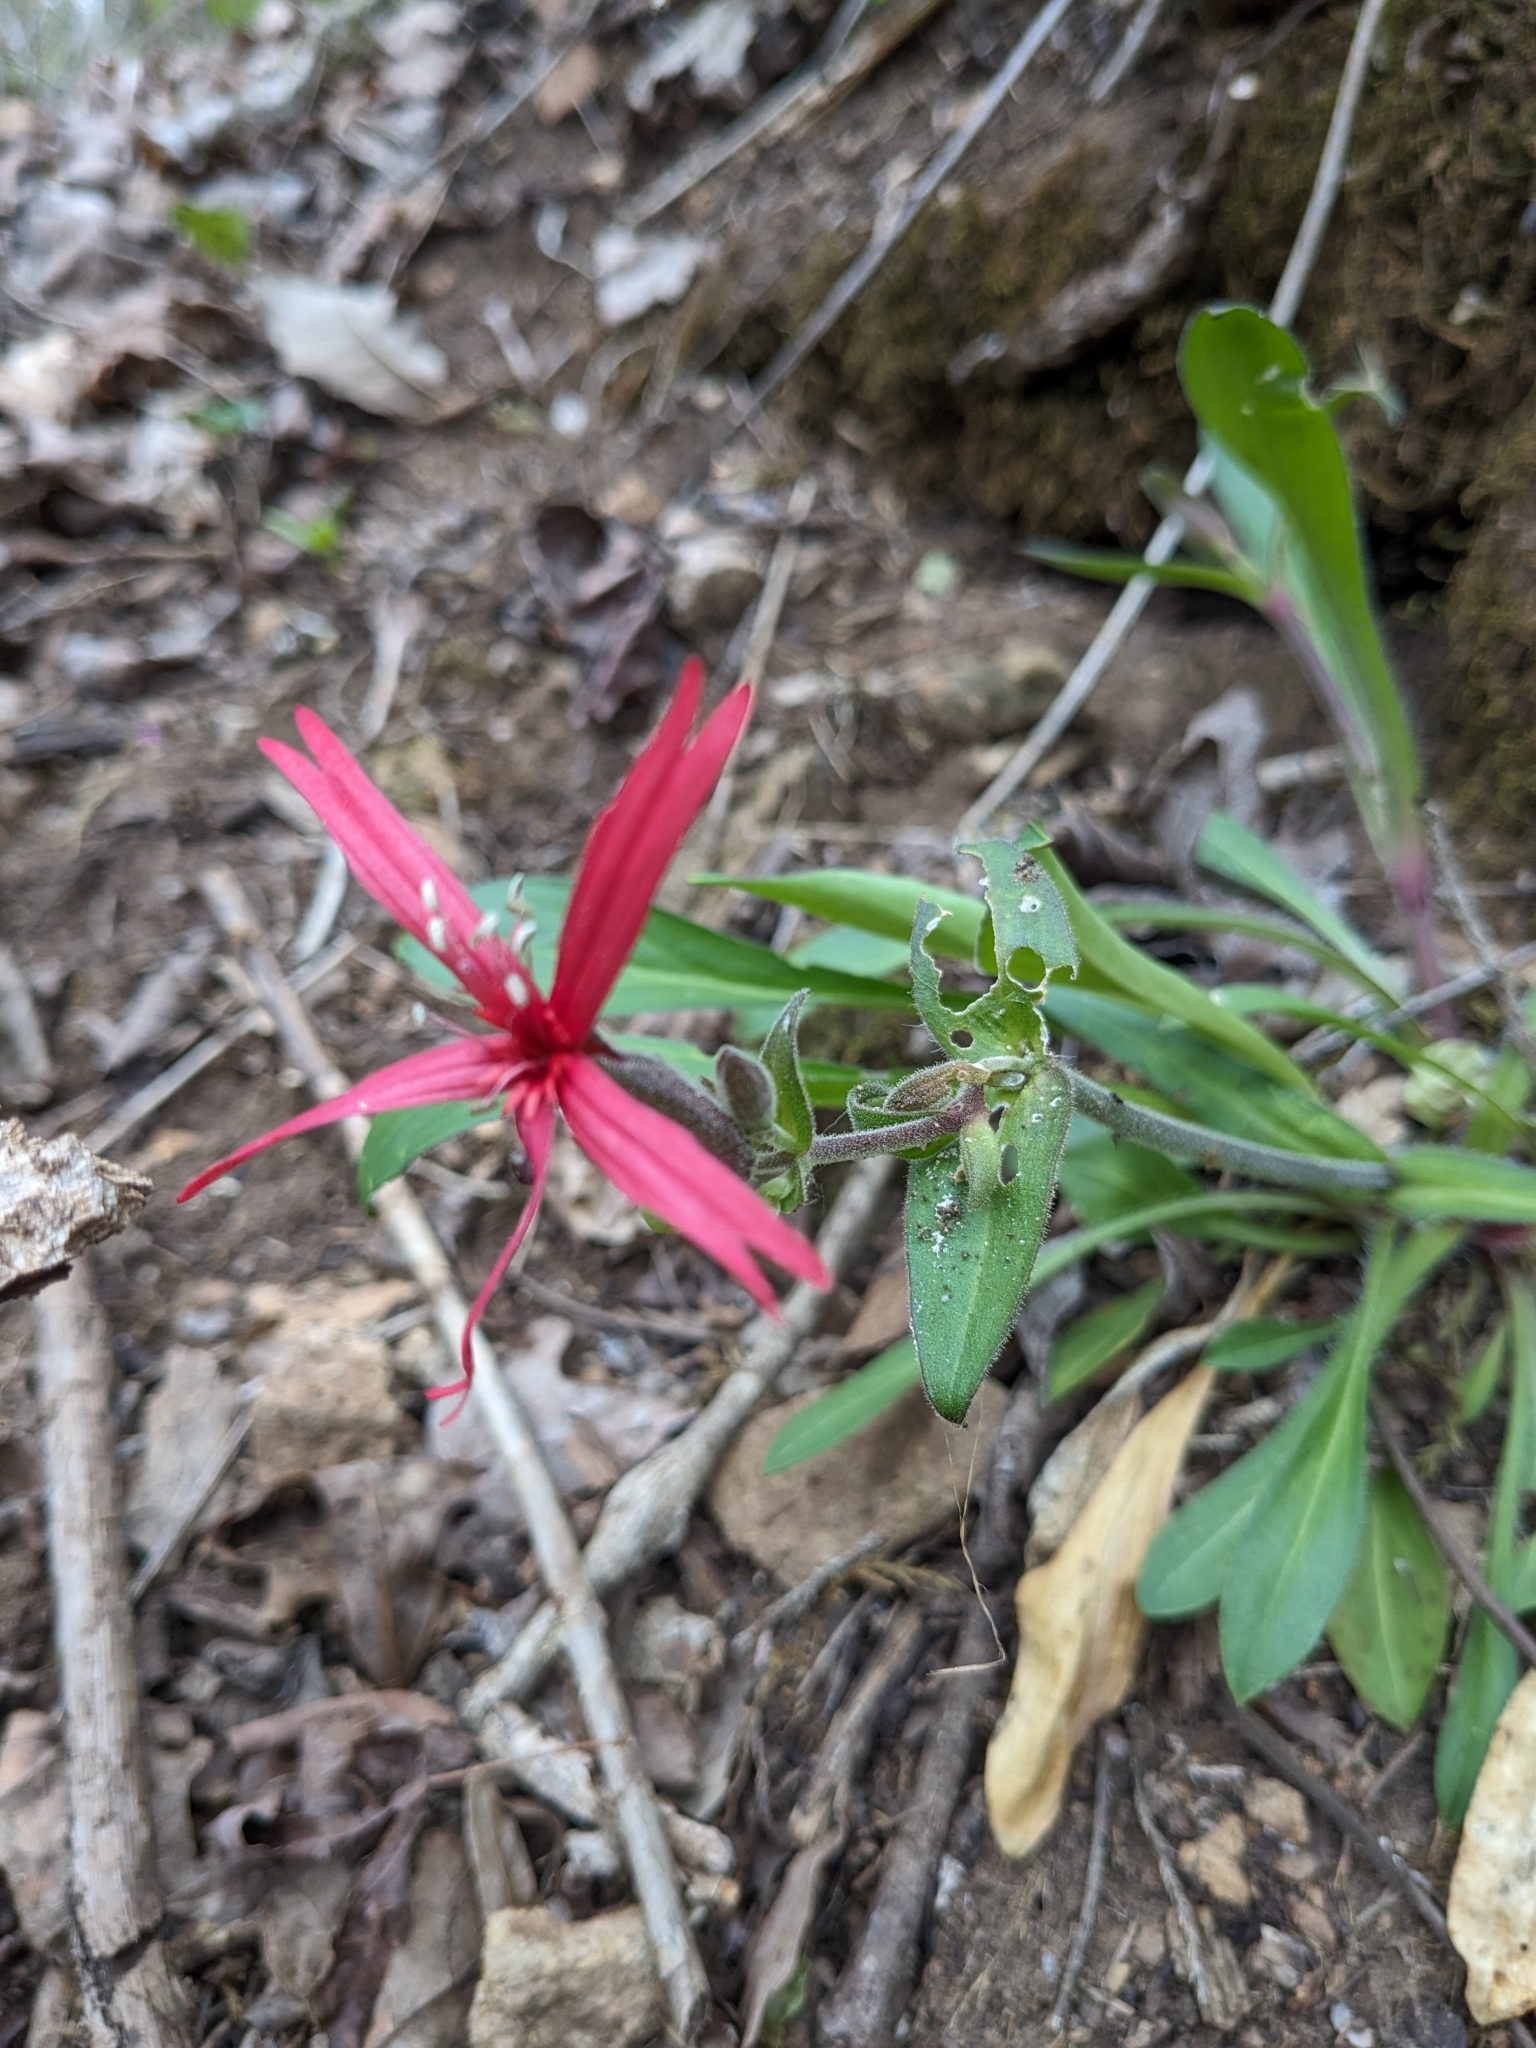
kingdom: Plantae
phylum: Tracheophyta
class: Magnoliopsida
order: Caryophyllales
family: Caryophyllaceae
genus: Silene
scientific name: Silene virginica
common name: Fire-pink
